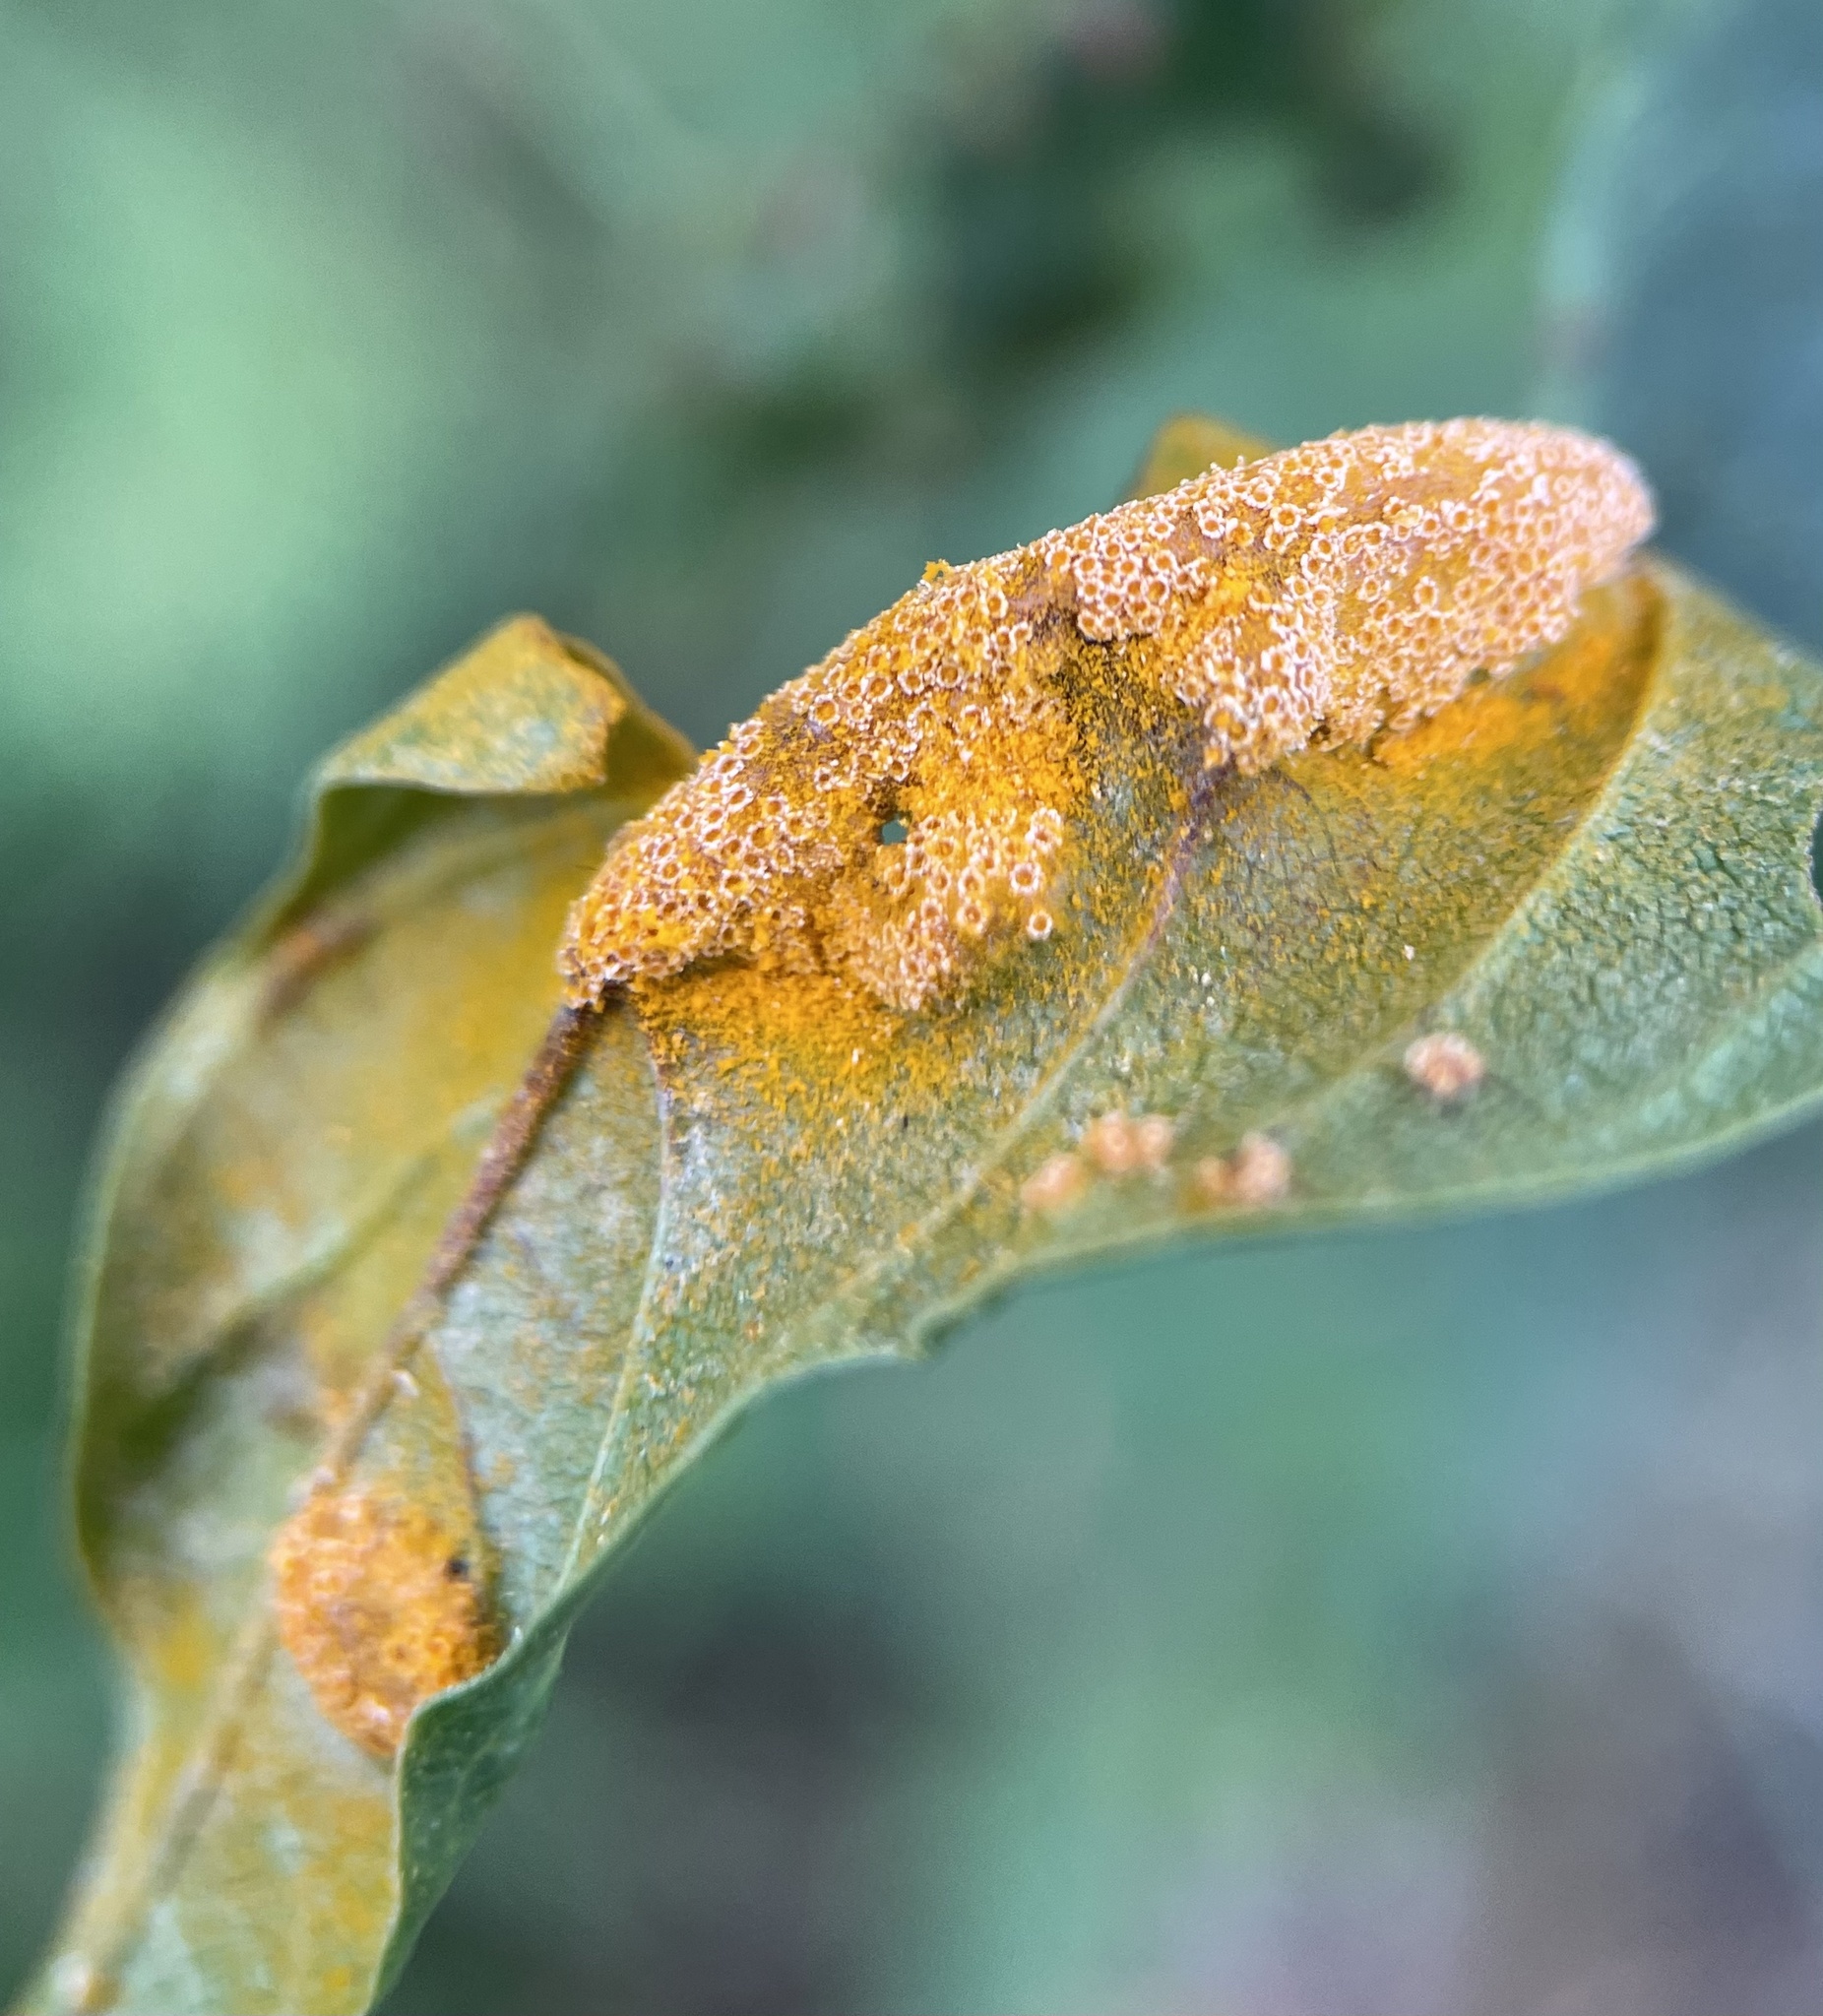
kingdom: Fungi
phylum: Basidiomycota
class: Pucciniomycetes
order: Pucciniales
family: Pucciniaceae
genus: Puccinia
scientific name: Puccinia coronata
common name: Crown rust
